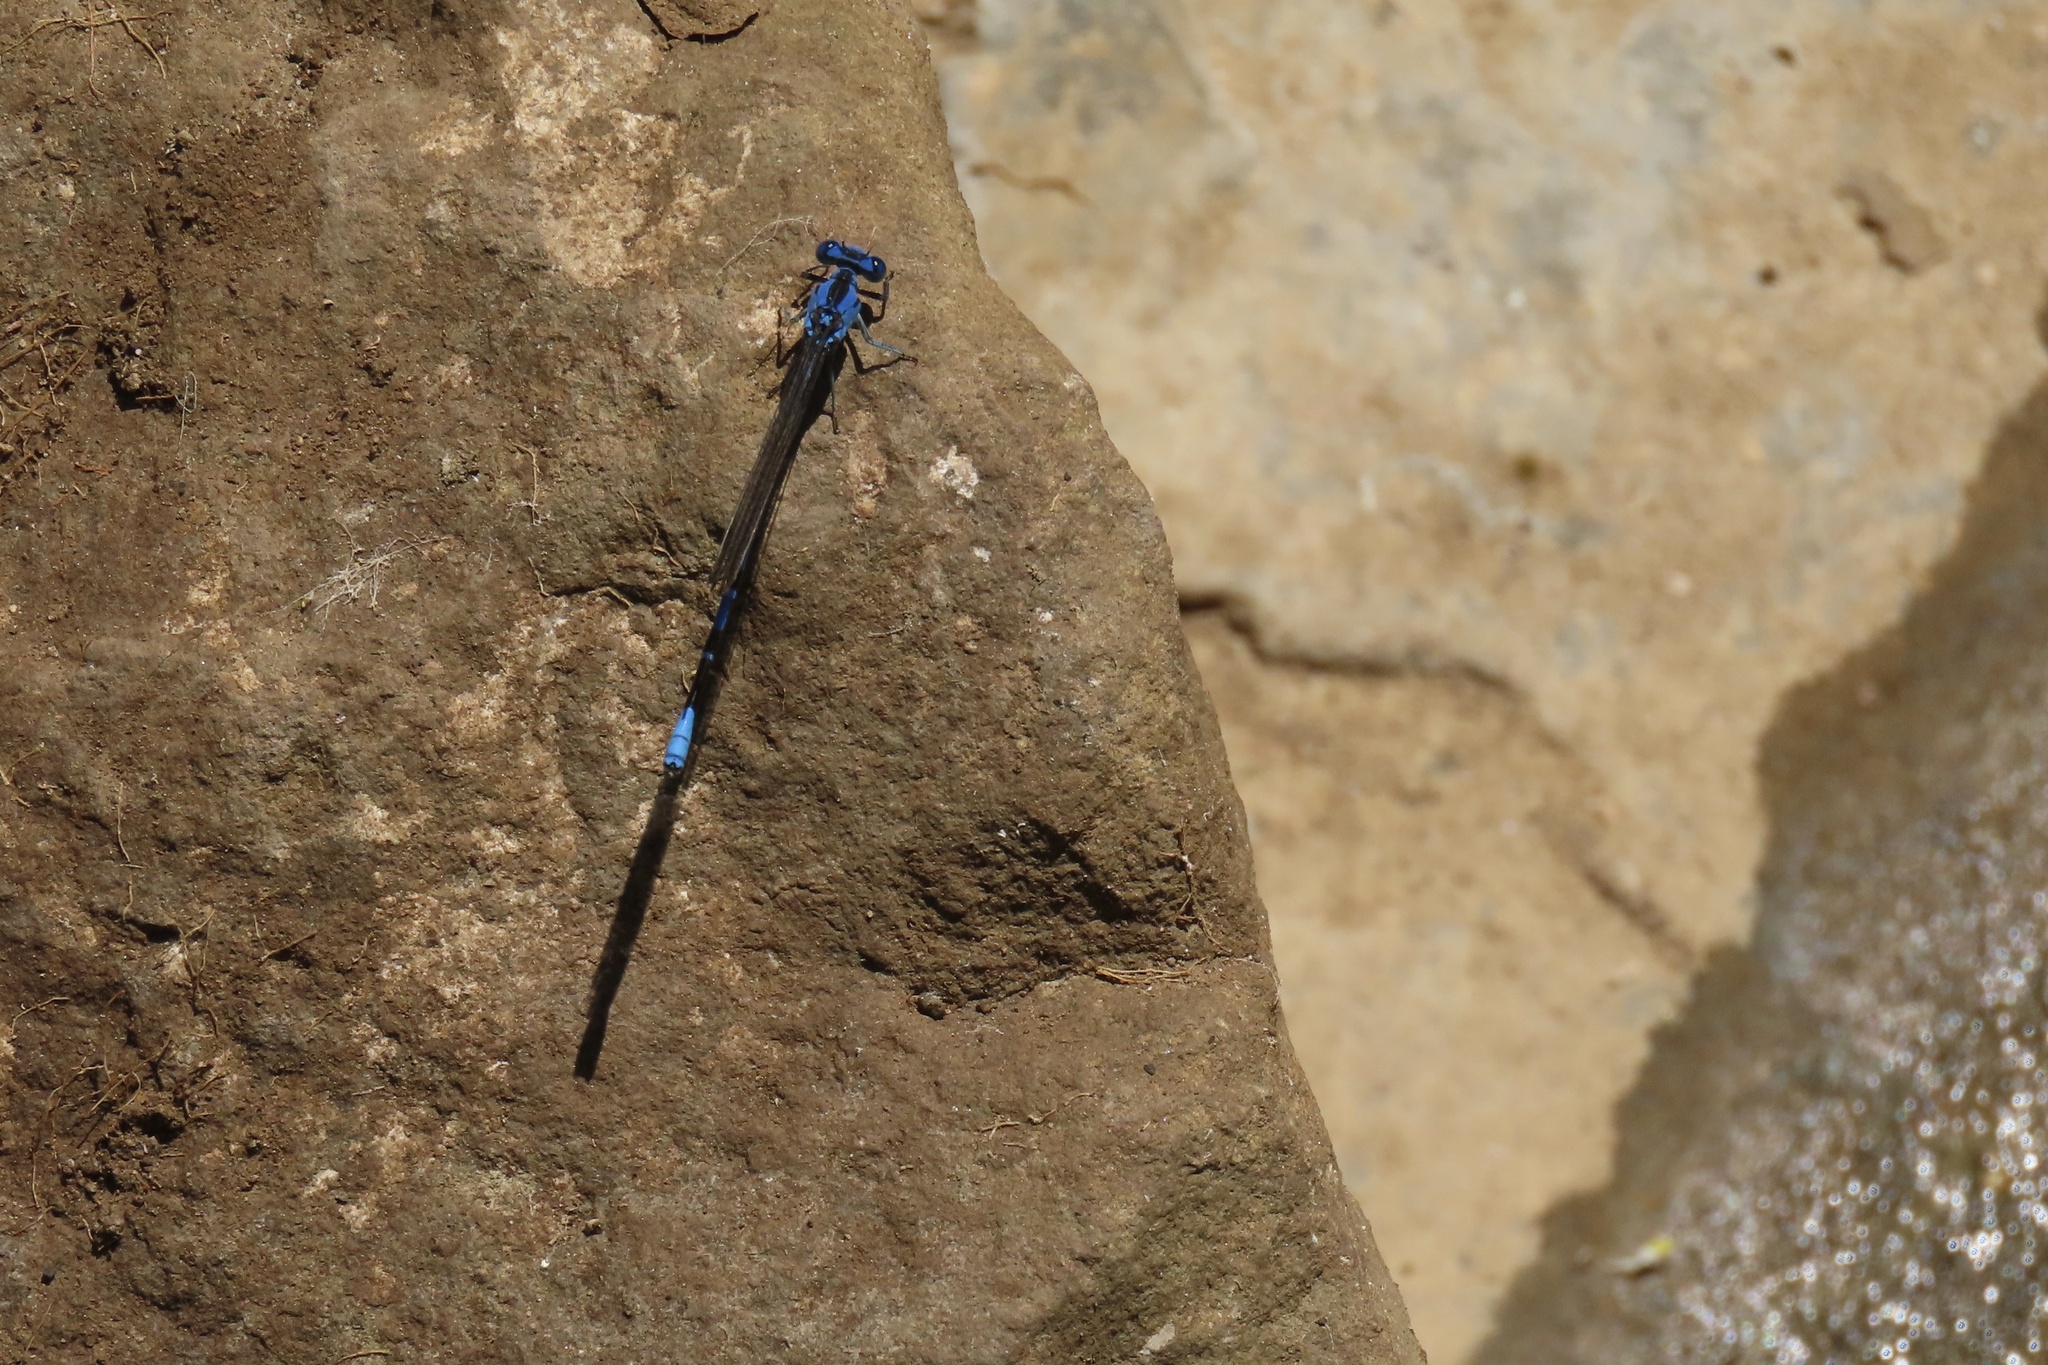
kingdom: Animalia
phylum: Arthropoda
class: Insecta
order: Odonata
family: Coenagrionidae
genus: Argia
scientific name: Argia vivida
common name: Vivid dancer
